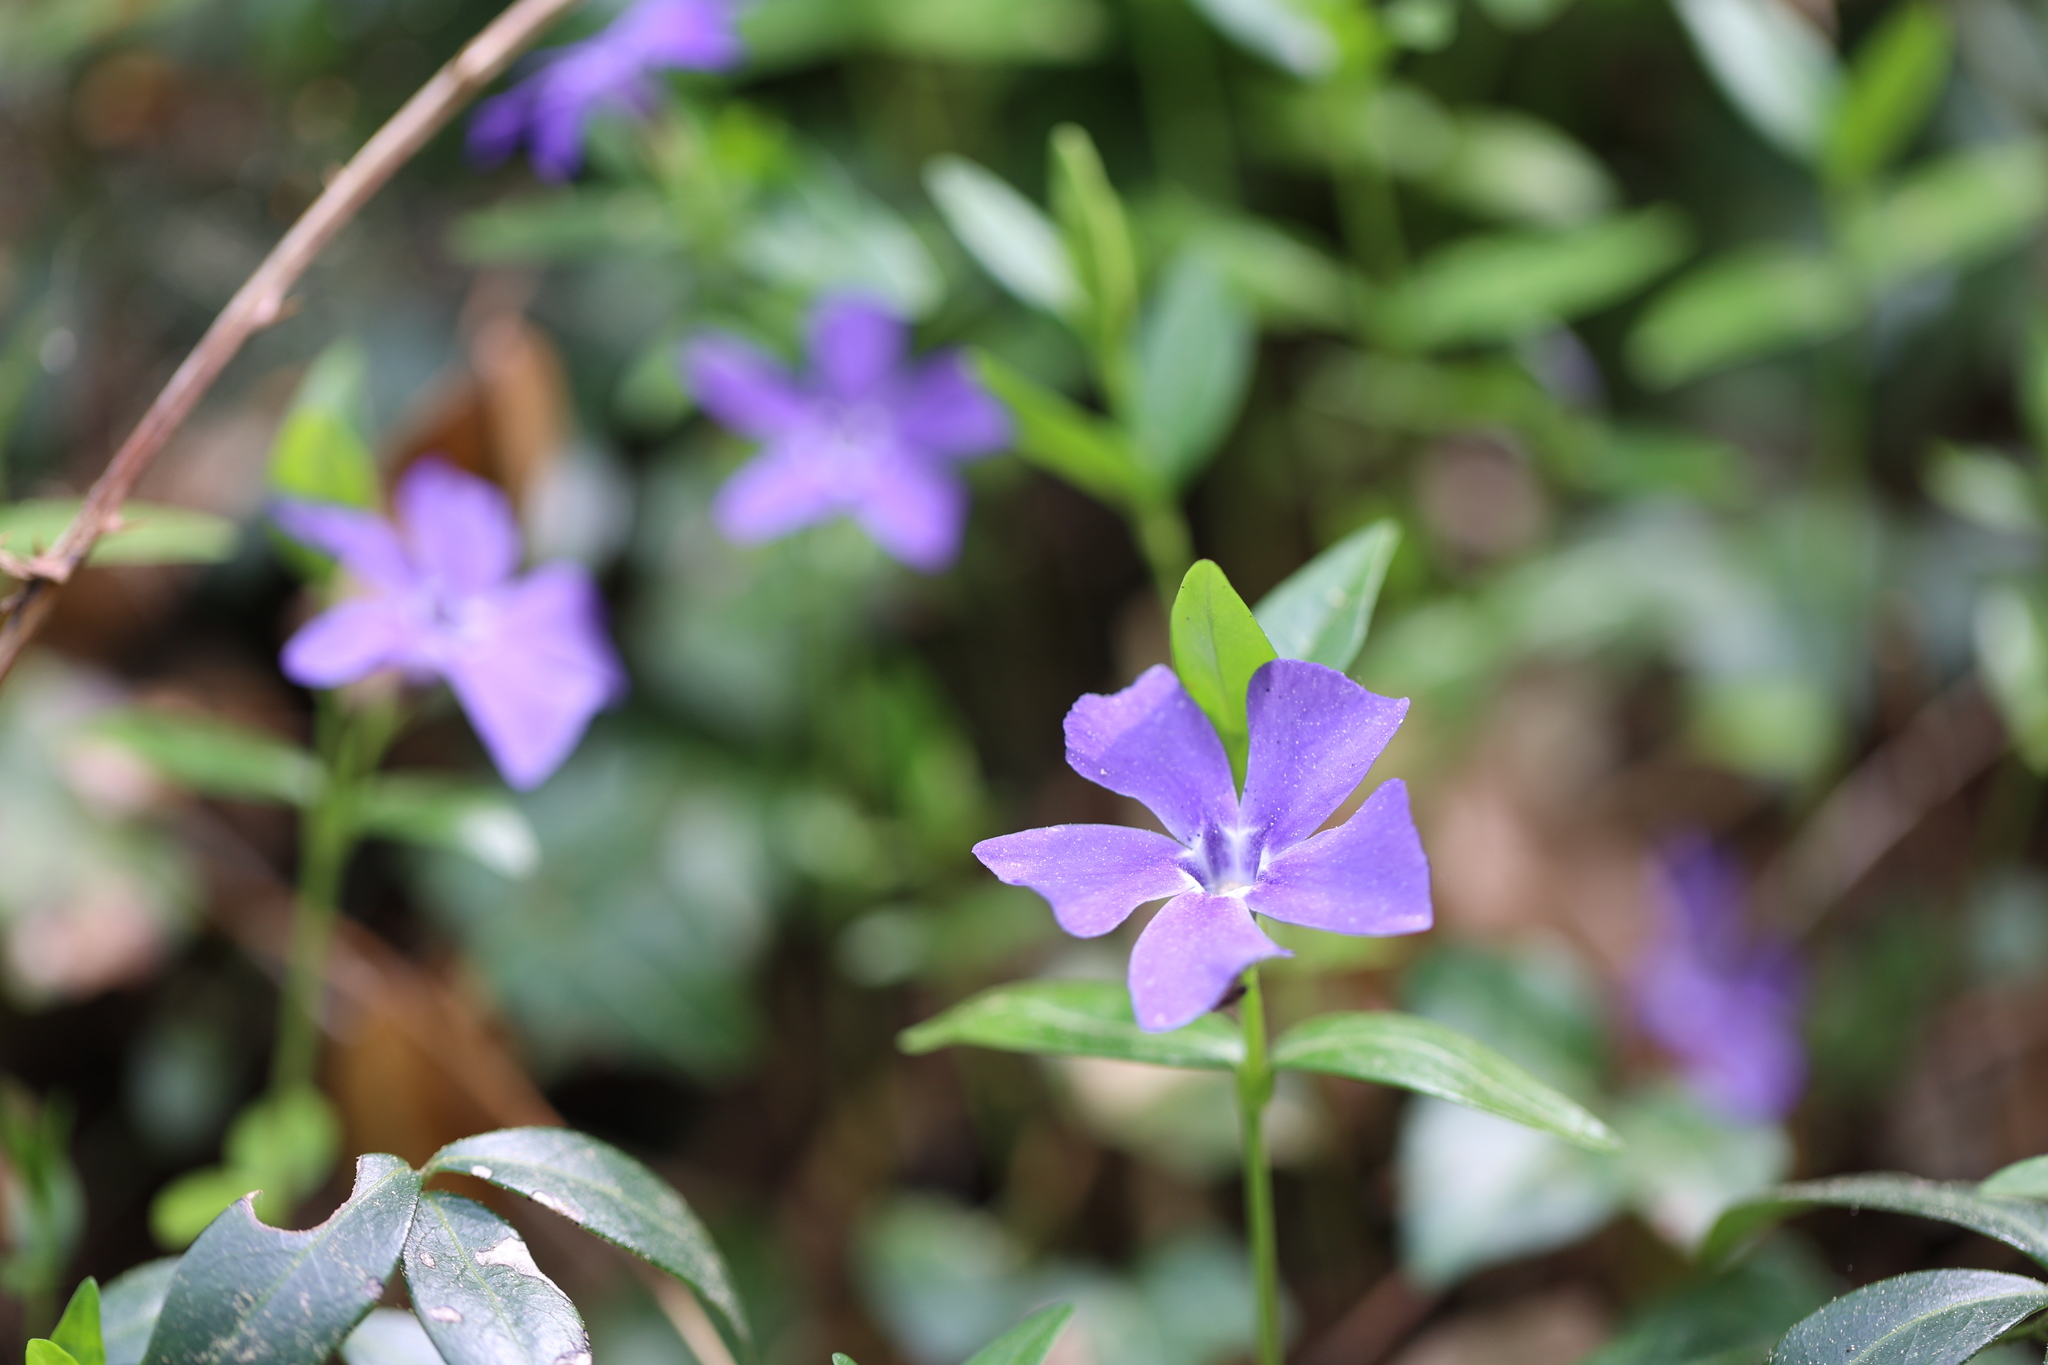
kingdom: Plantae
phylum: Tracheophyta
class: Magnoliopsida
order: Gentianales
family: Apocynaceae
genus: Vinca
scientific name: Vinca minor
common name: Lesser periwinkle
